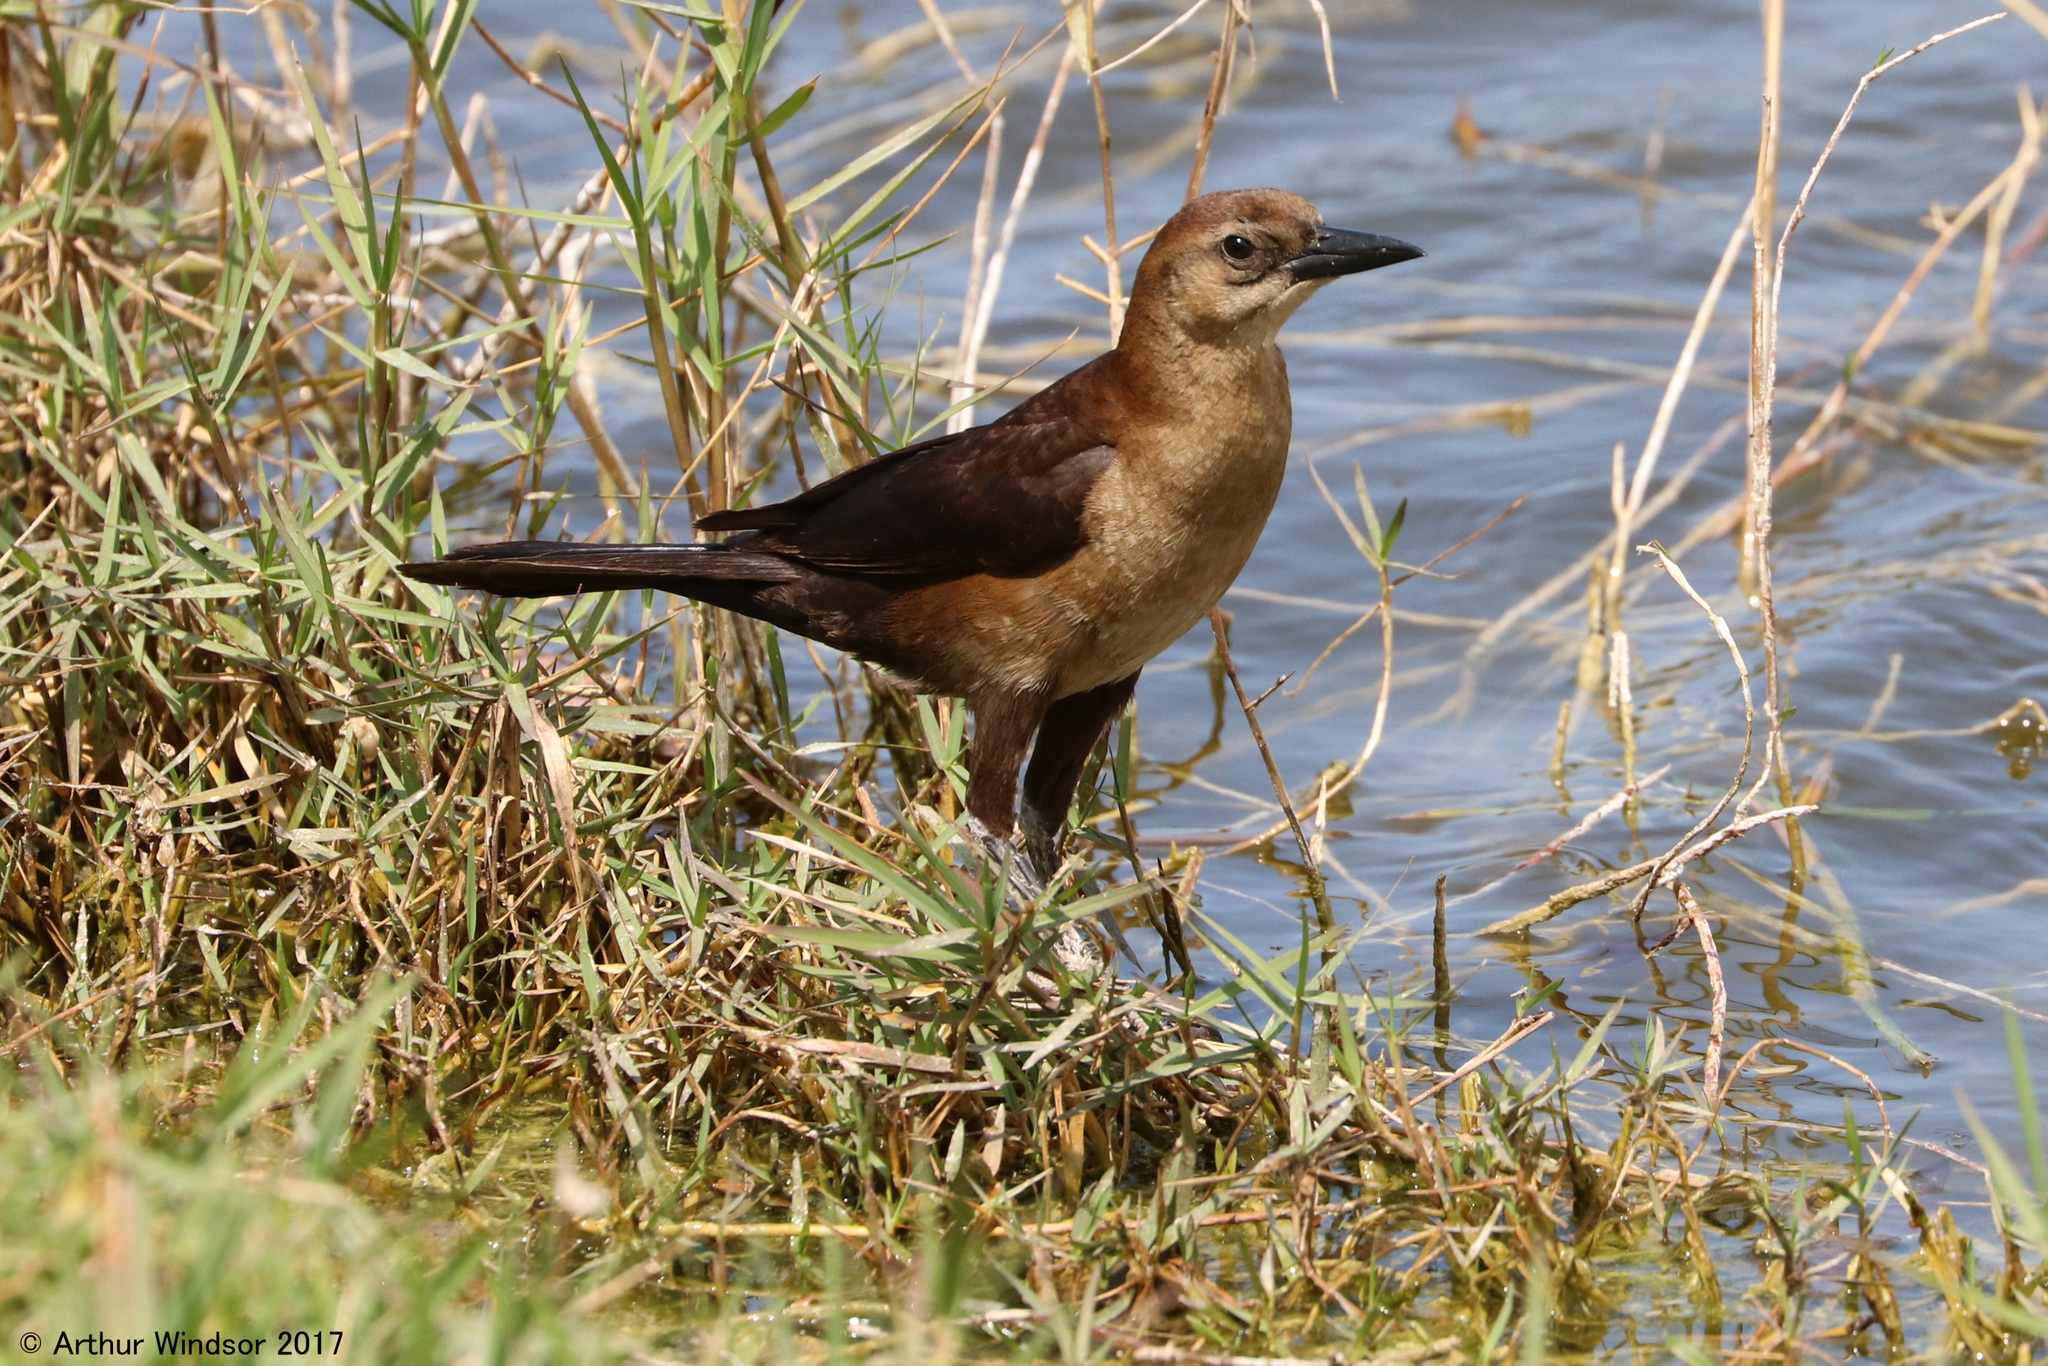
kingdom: Animalia
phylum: Chordata
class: Aves
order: Passeriformes
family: Icteridae
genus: Quiscalus
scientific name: Quiscalus major
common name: Boat-tailed grackle
